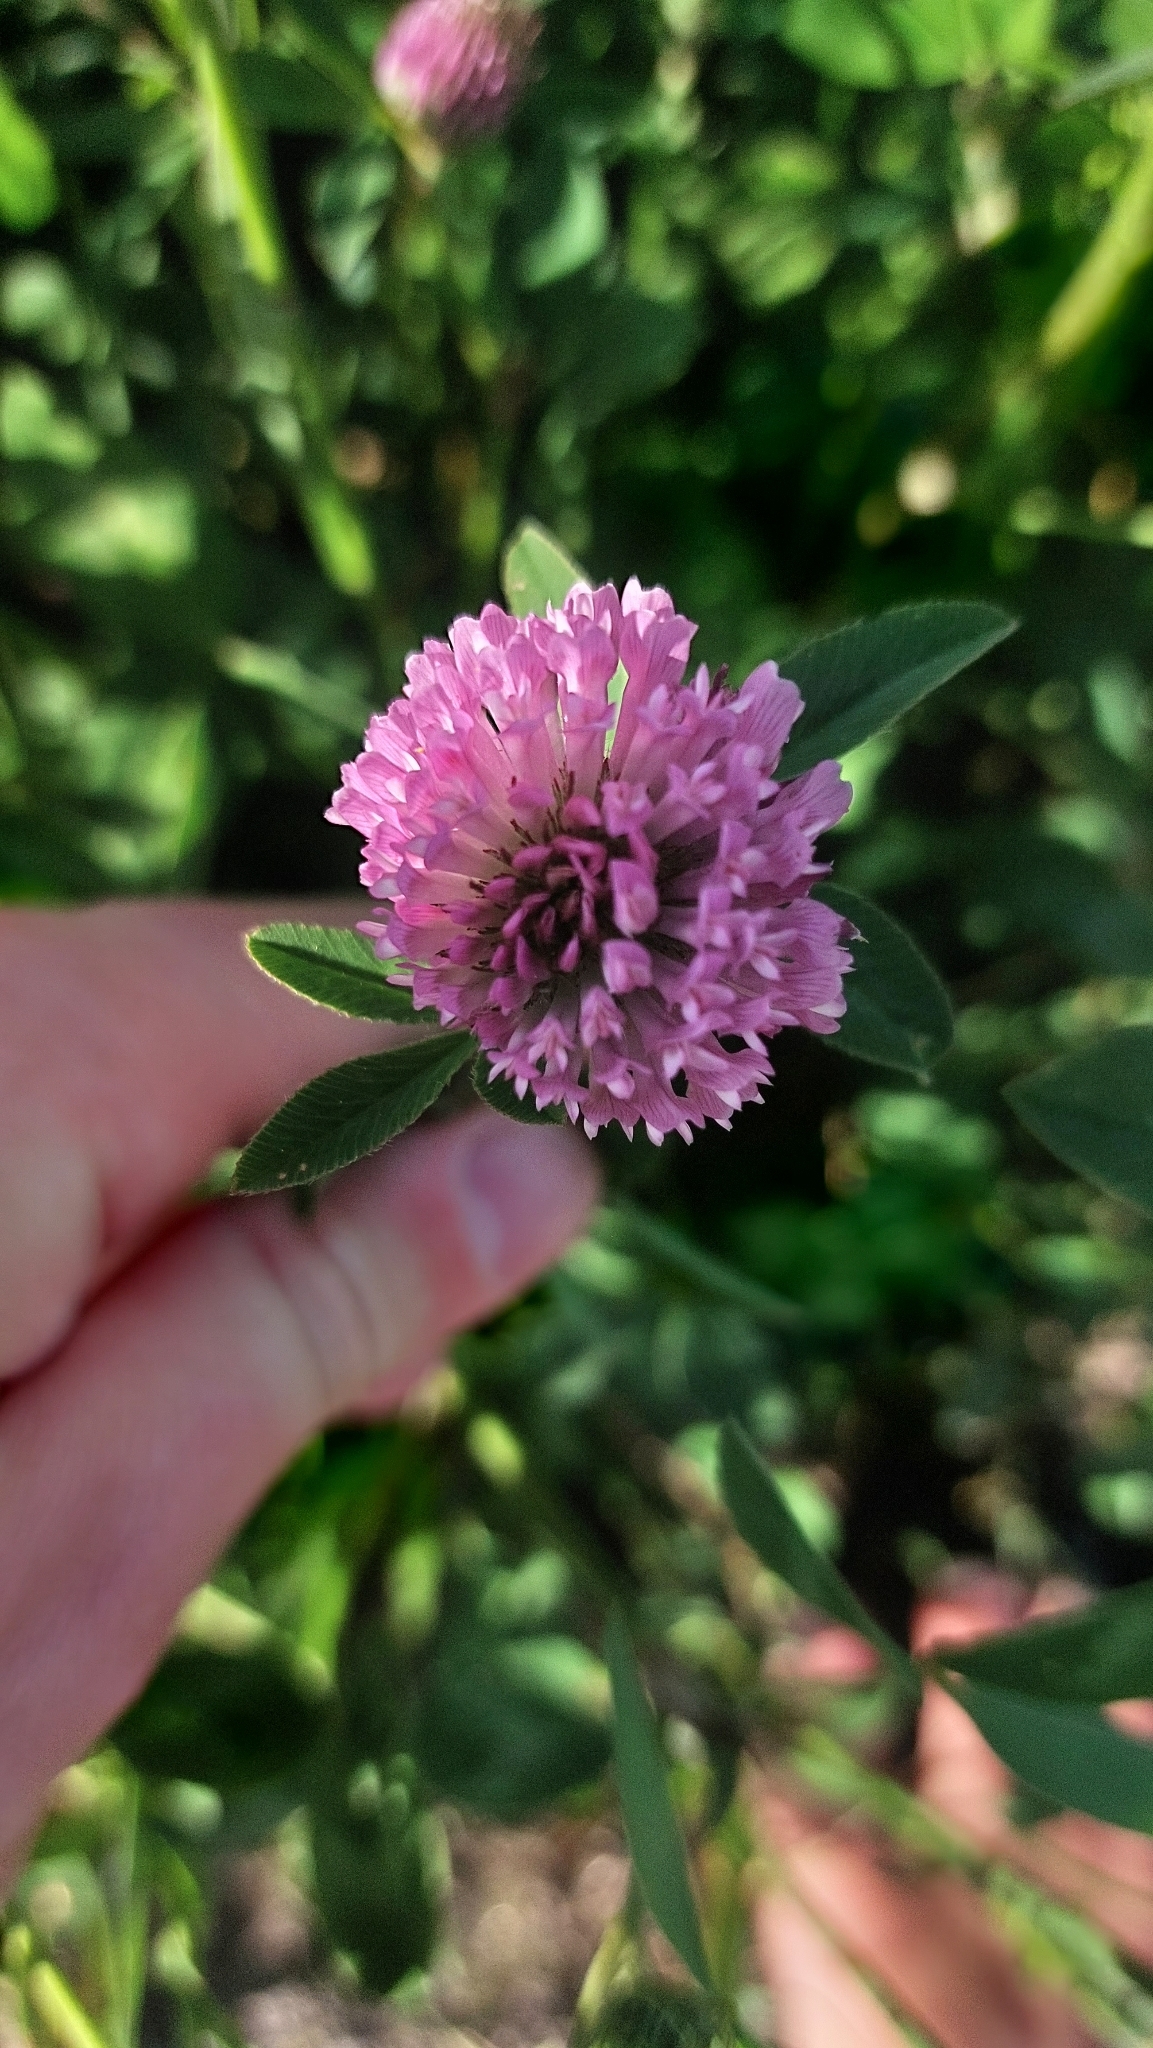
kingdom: Plantae
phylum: Tracheophyta
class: Magnoliopsida
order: Fabales
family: Fabaceae
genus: Trifolium
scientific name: Trifolium pratense
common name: Red clover
